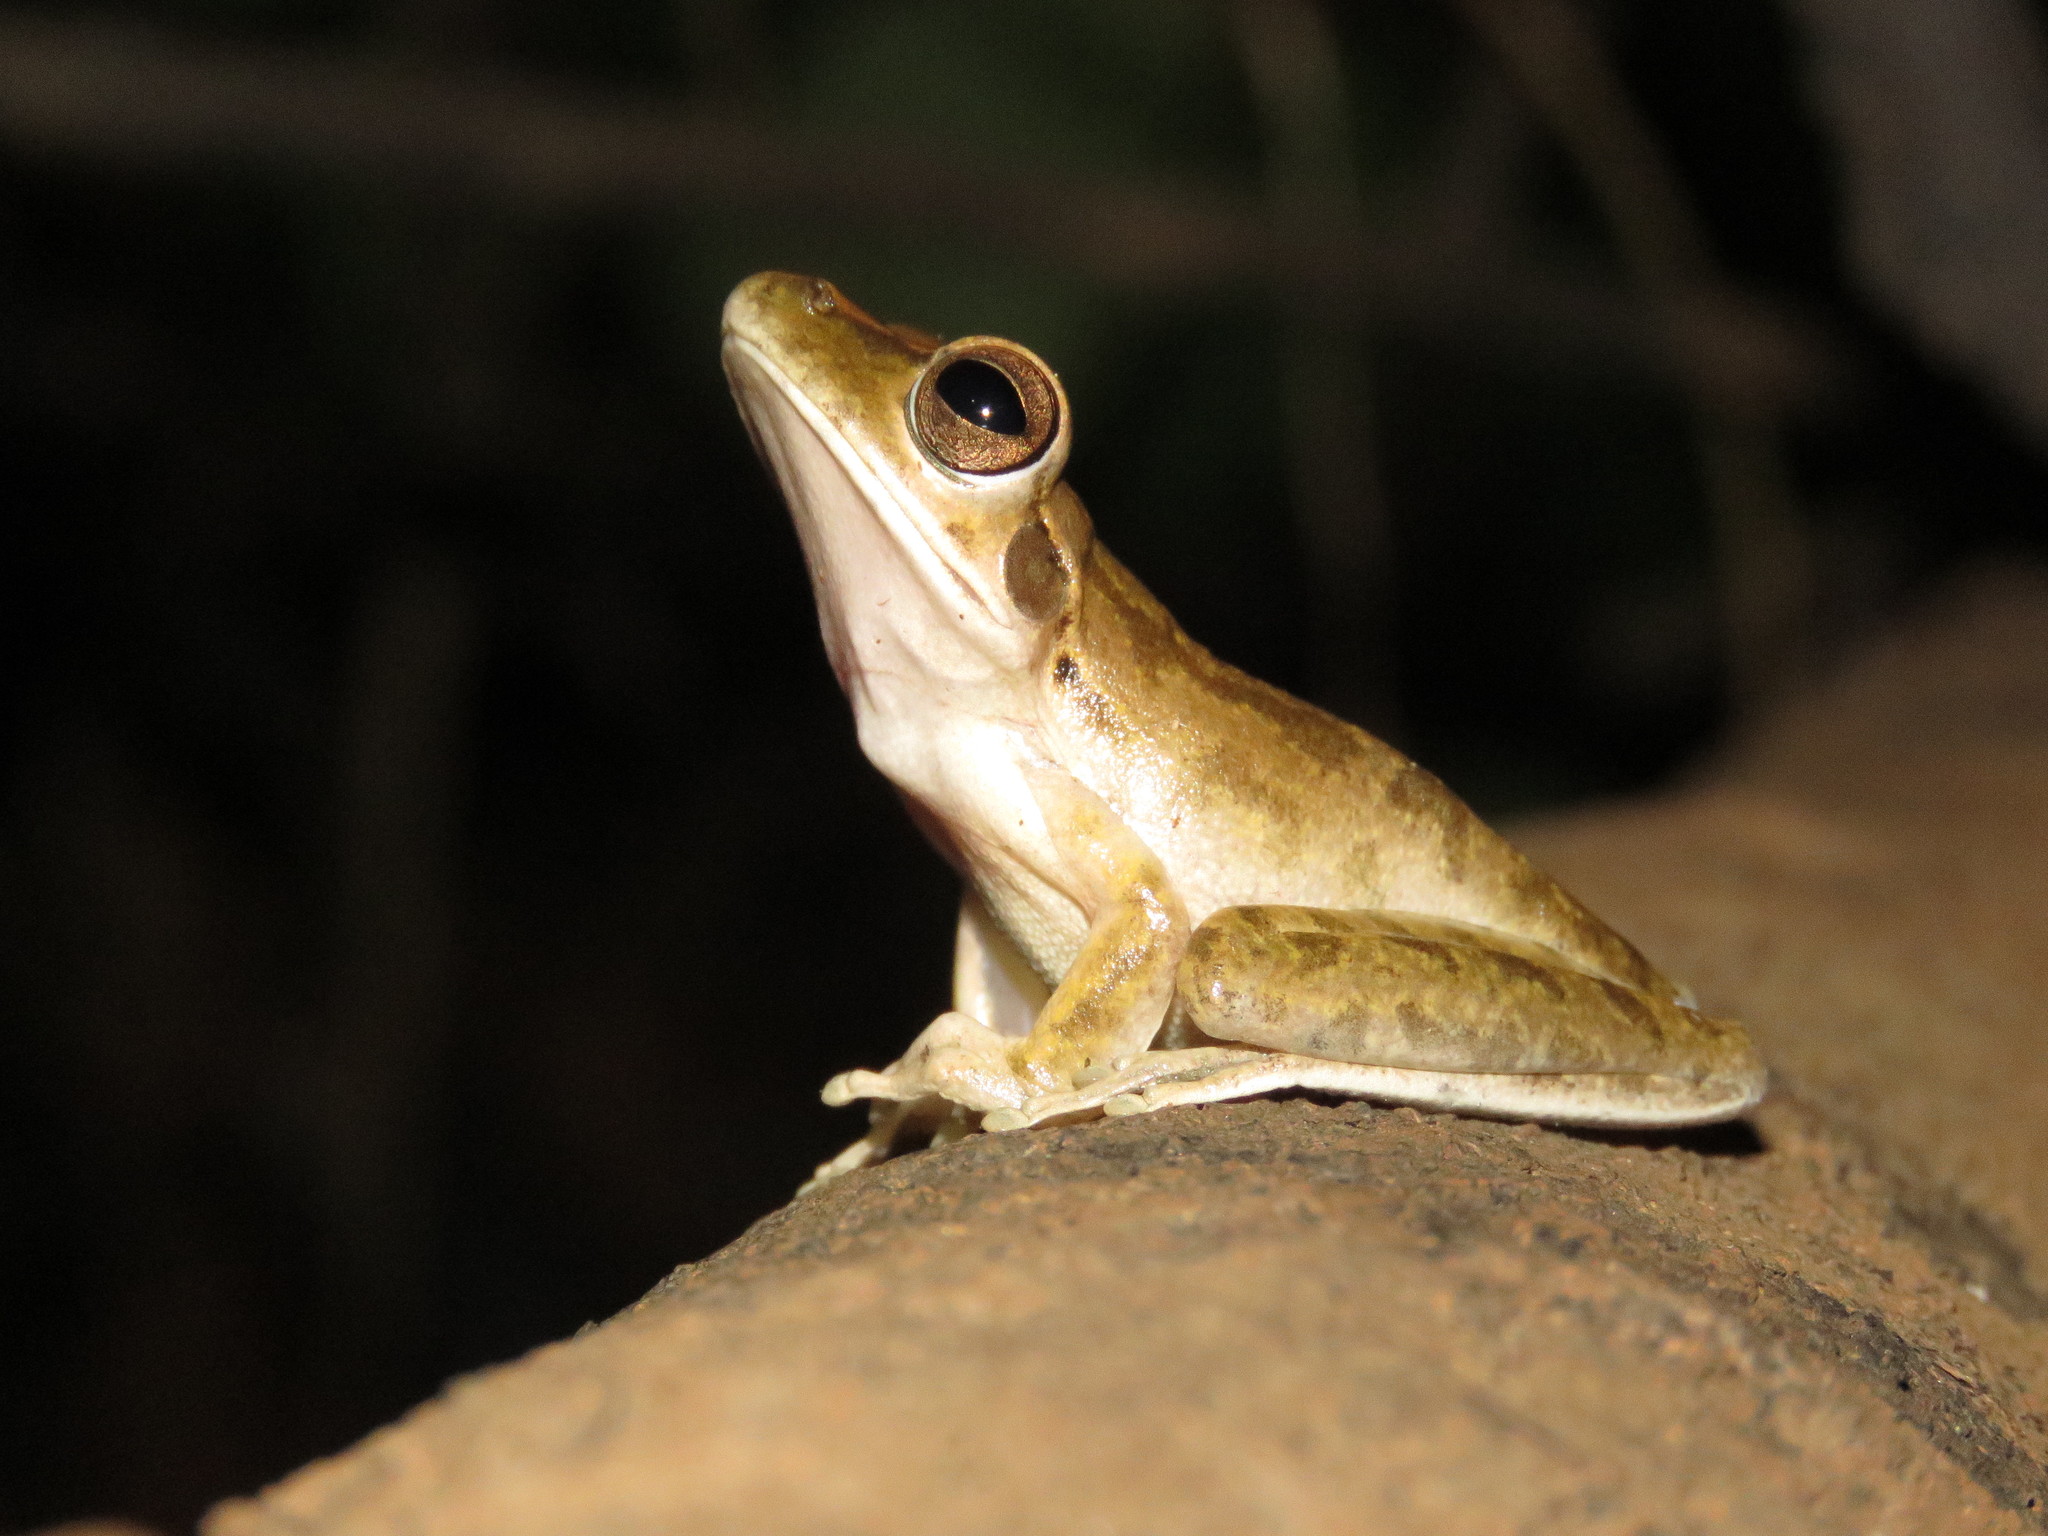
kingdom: Animalia
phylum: Chordata
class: Amphibia
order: Anura
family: Hylidae
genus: Boana
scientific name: Boana raniceps
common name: Chaco treefrog
